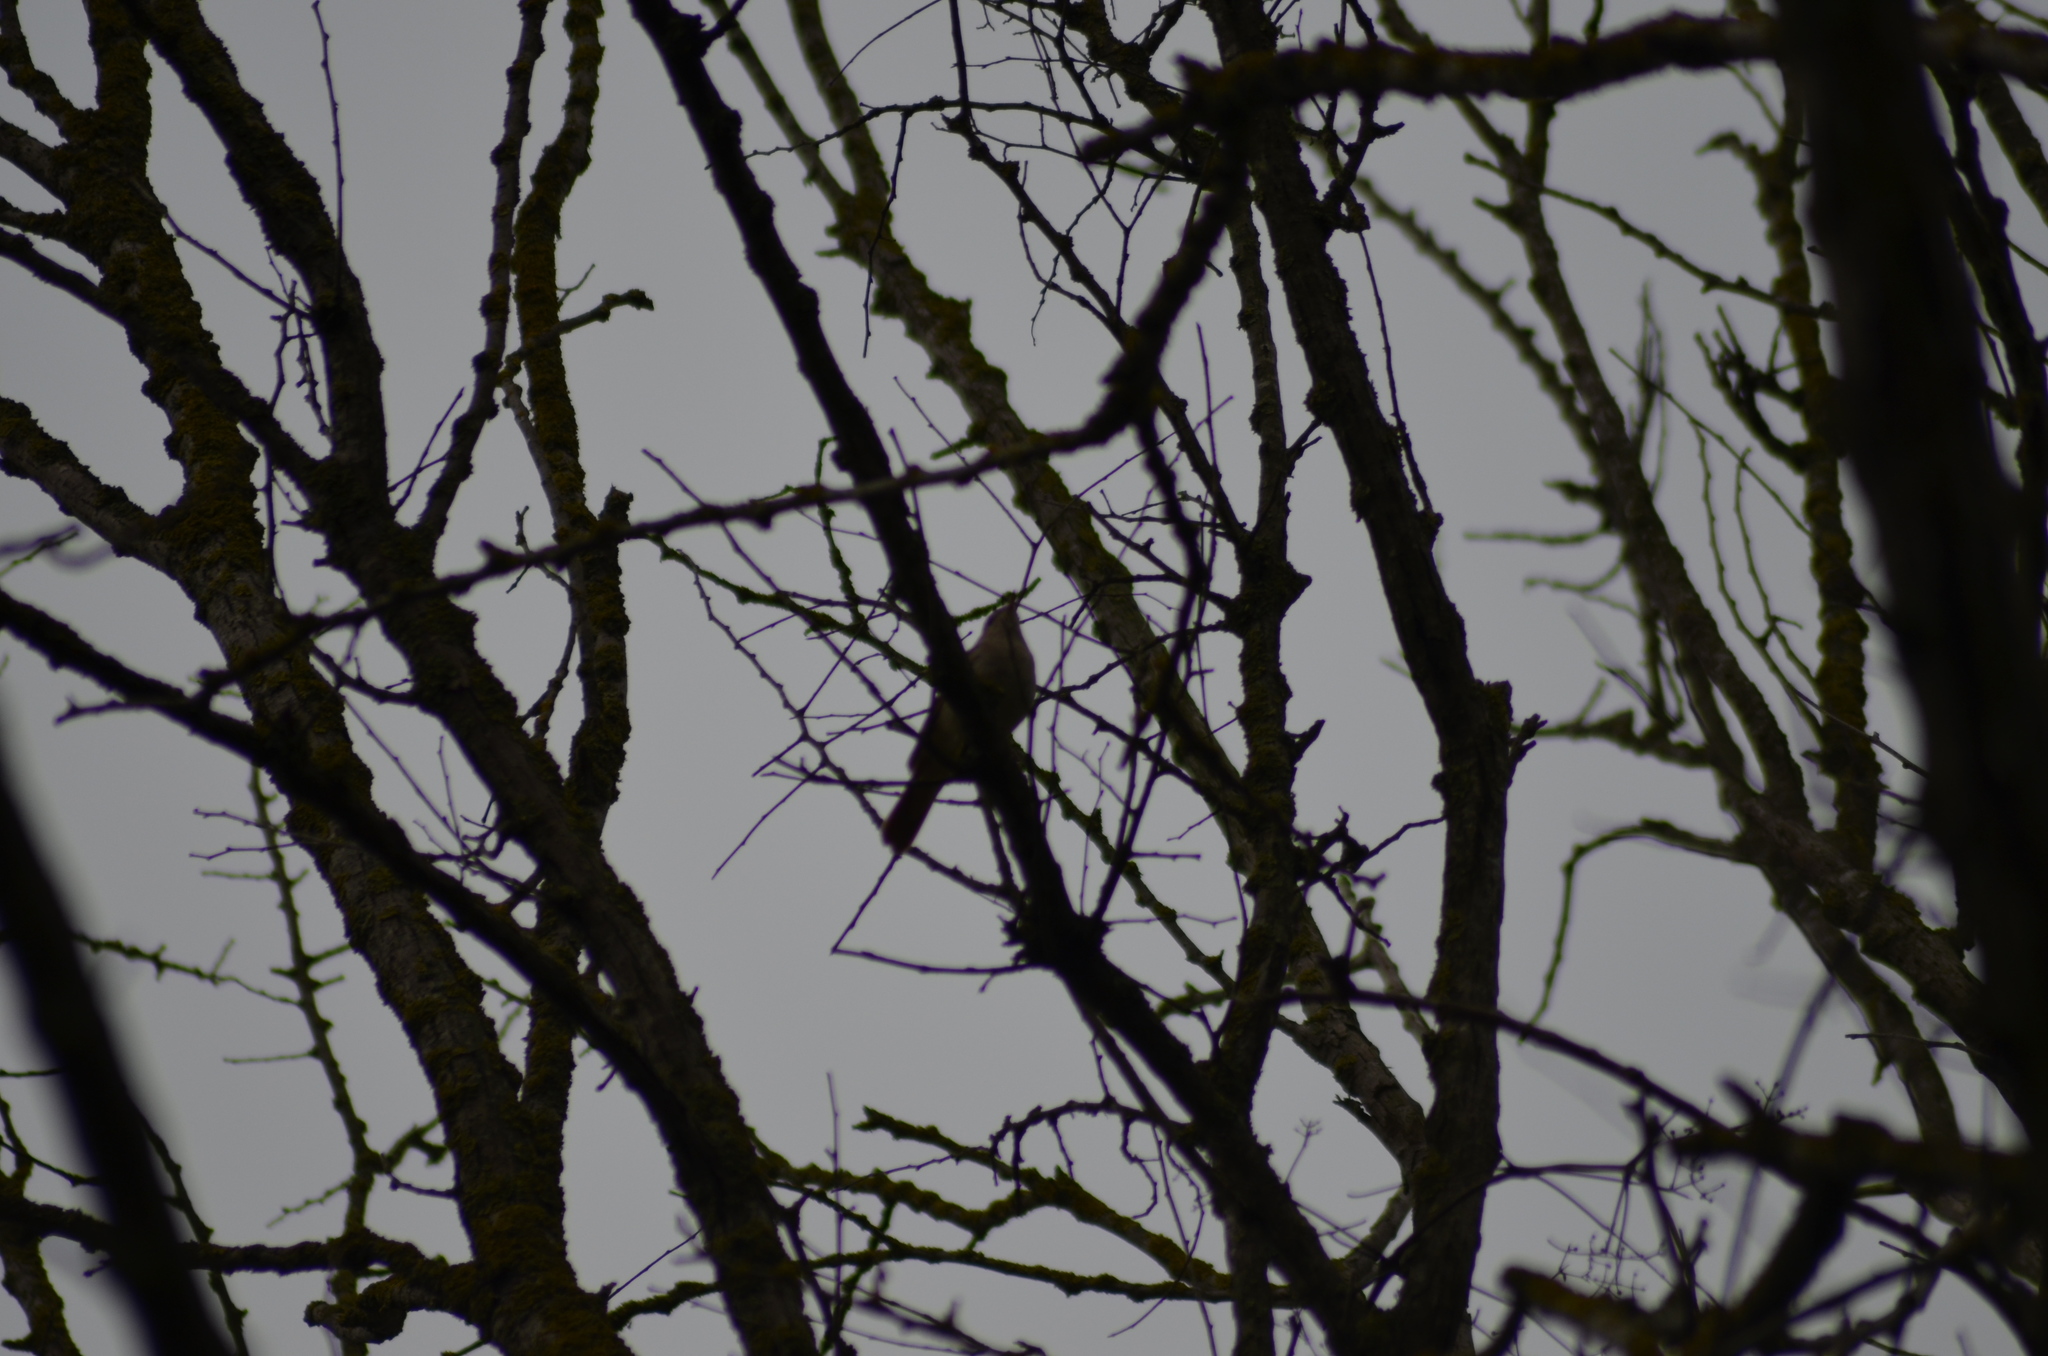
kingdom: Animalia
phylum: Chordata
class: Aves
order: Passeriformes
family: Muscicapidae
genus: Luscinia
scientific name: Luscinia megarhynchos
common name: Common nightingale
